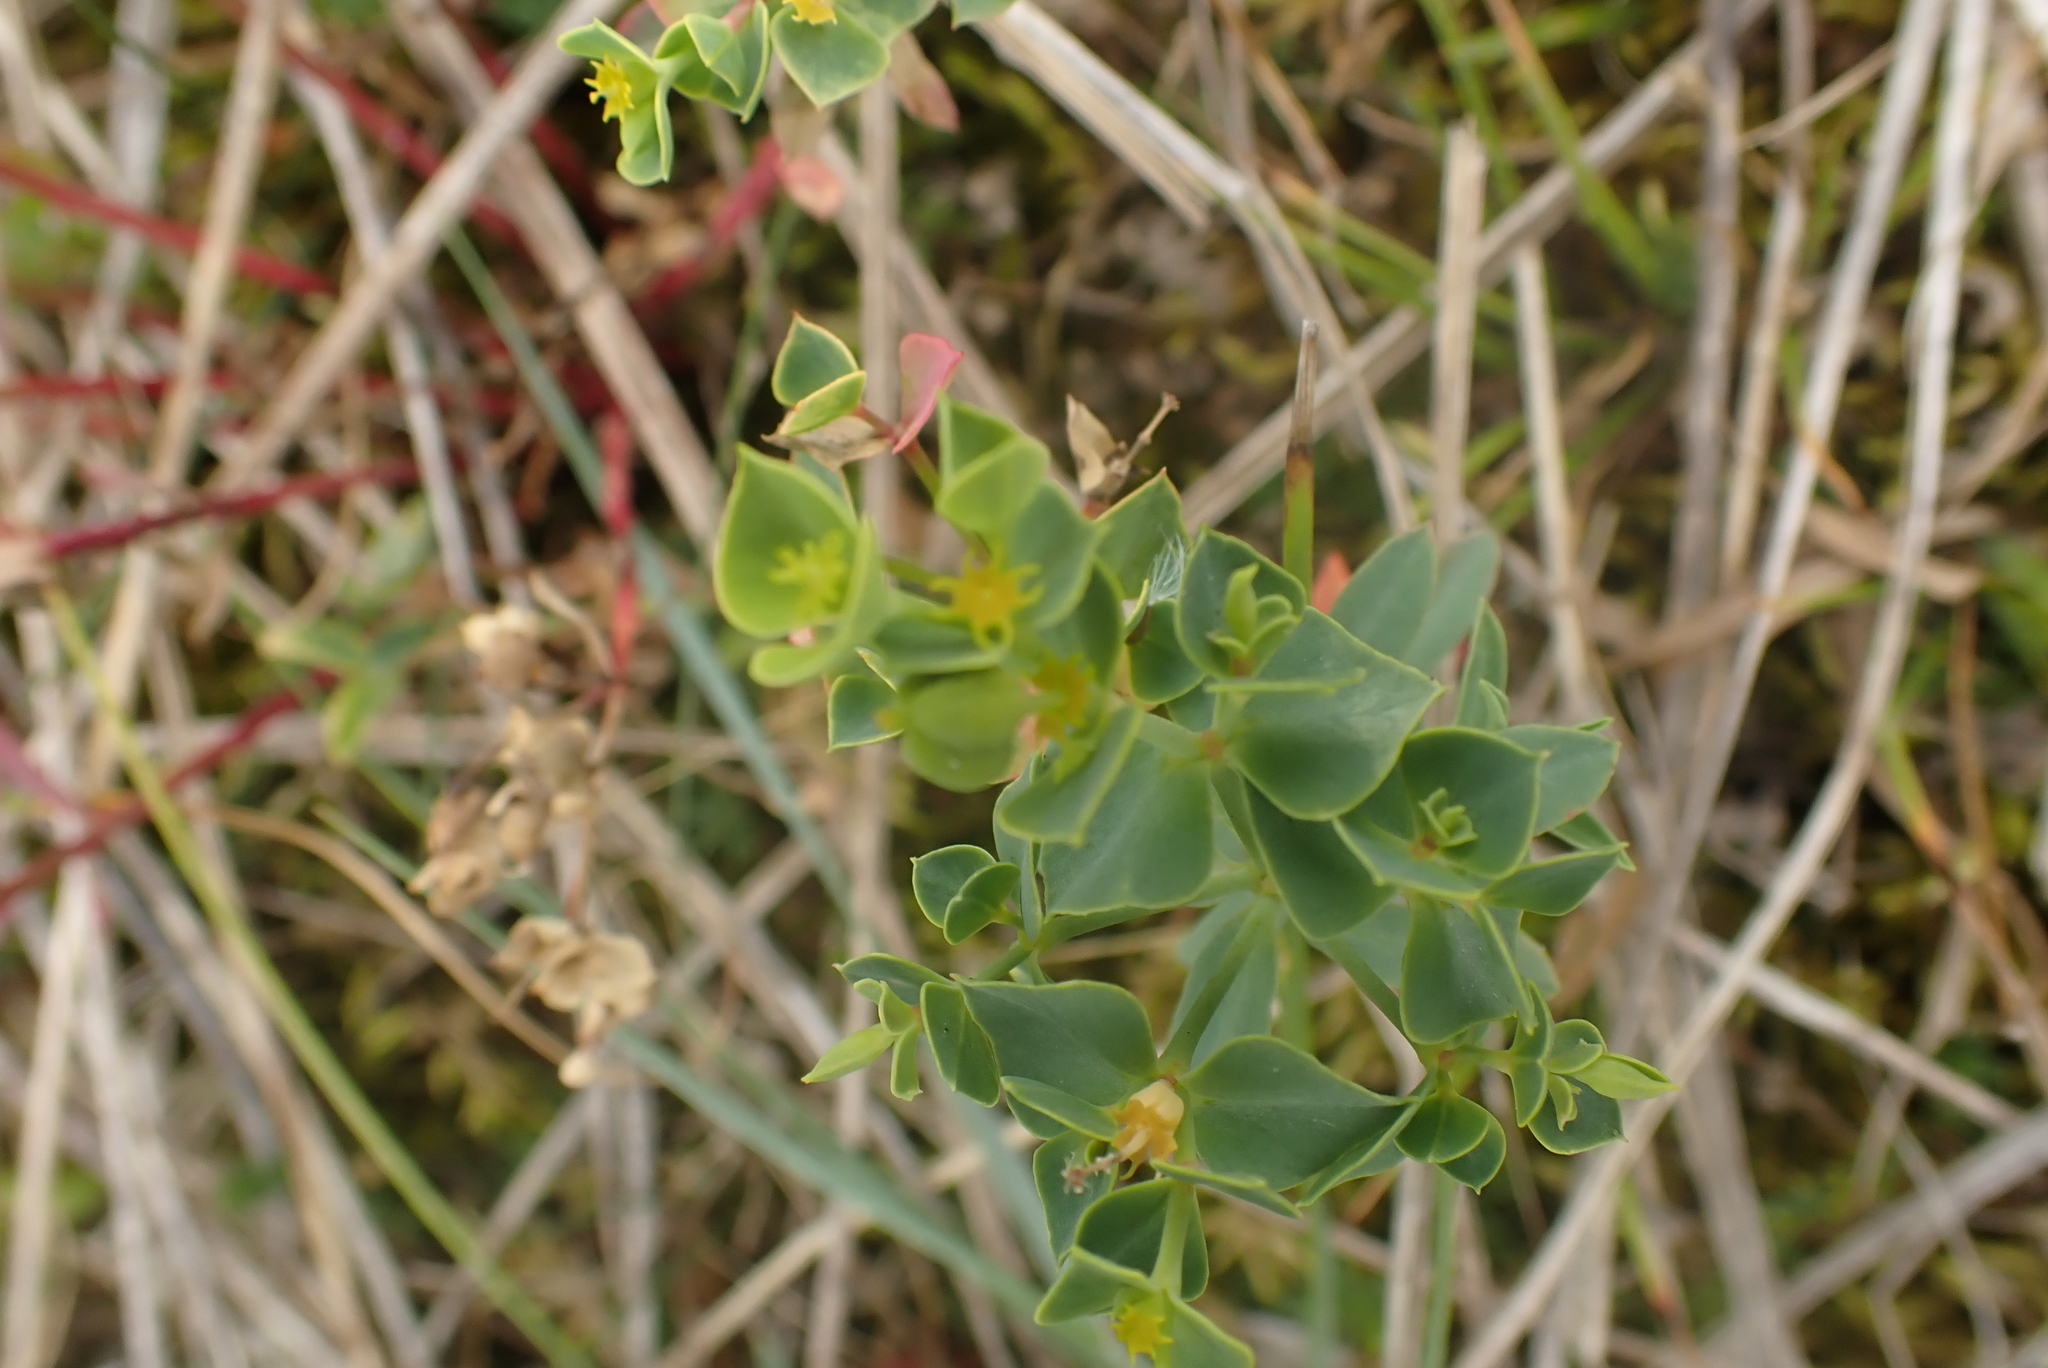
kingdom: Plantae
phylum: Tracheophyta
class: Magnoliopsida
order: Malpighiales
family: Euphorbiaceae
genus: Euphorbia
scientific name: Euphorbia portlandica
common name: Portland spurge
